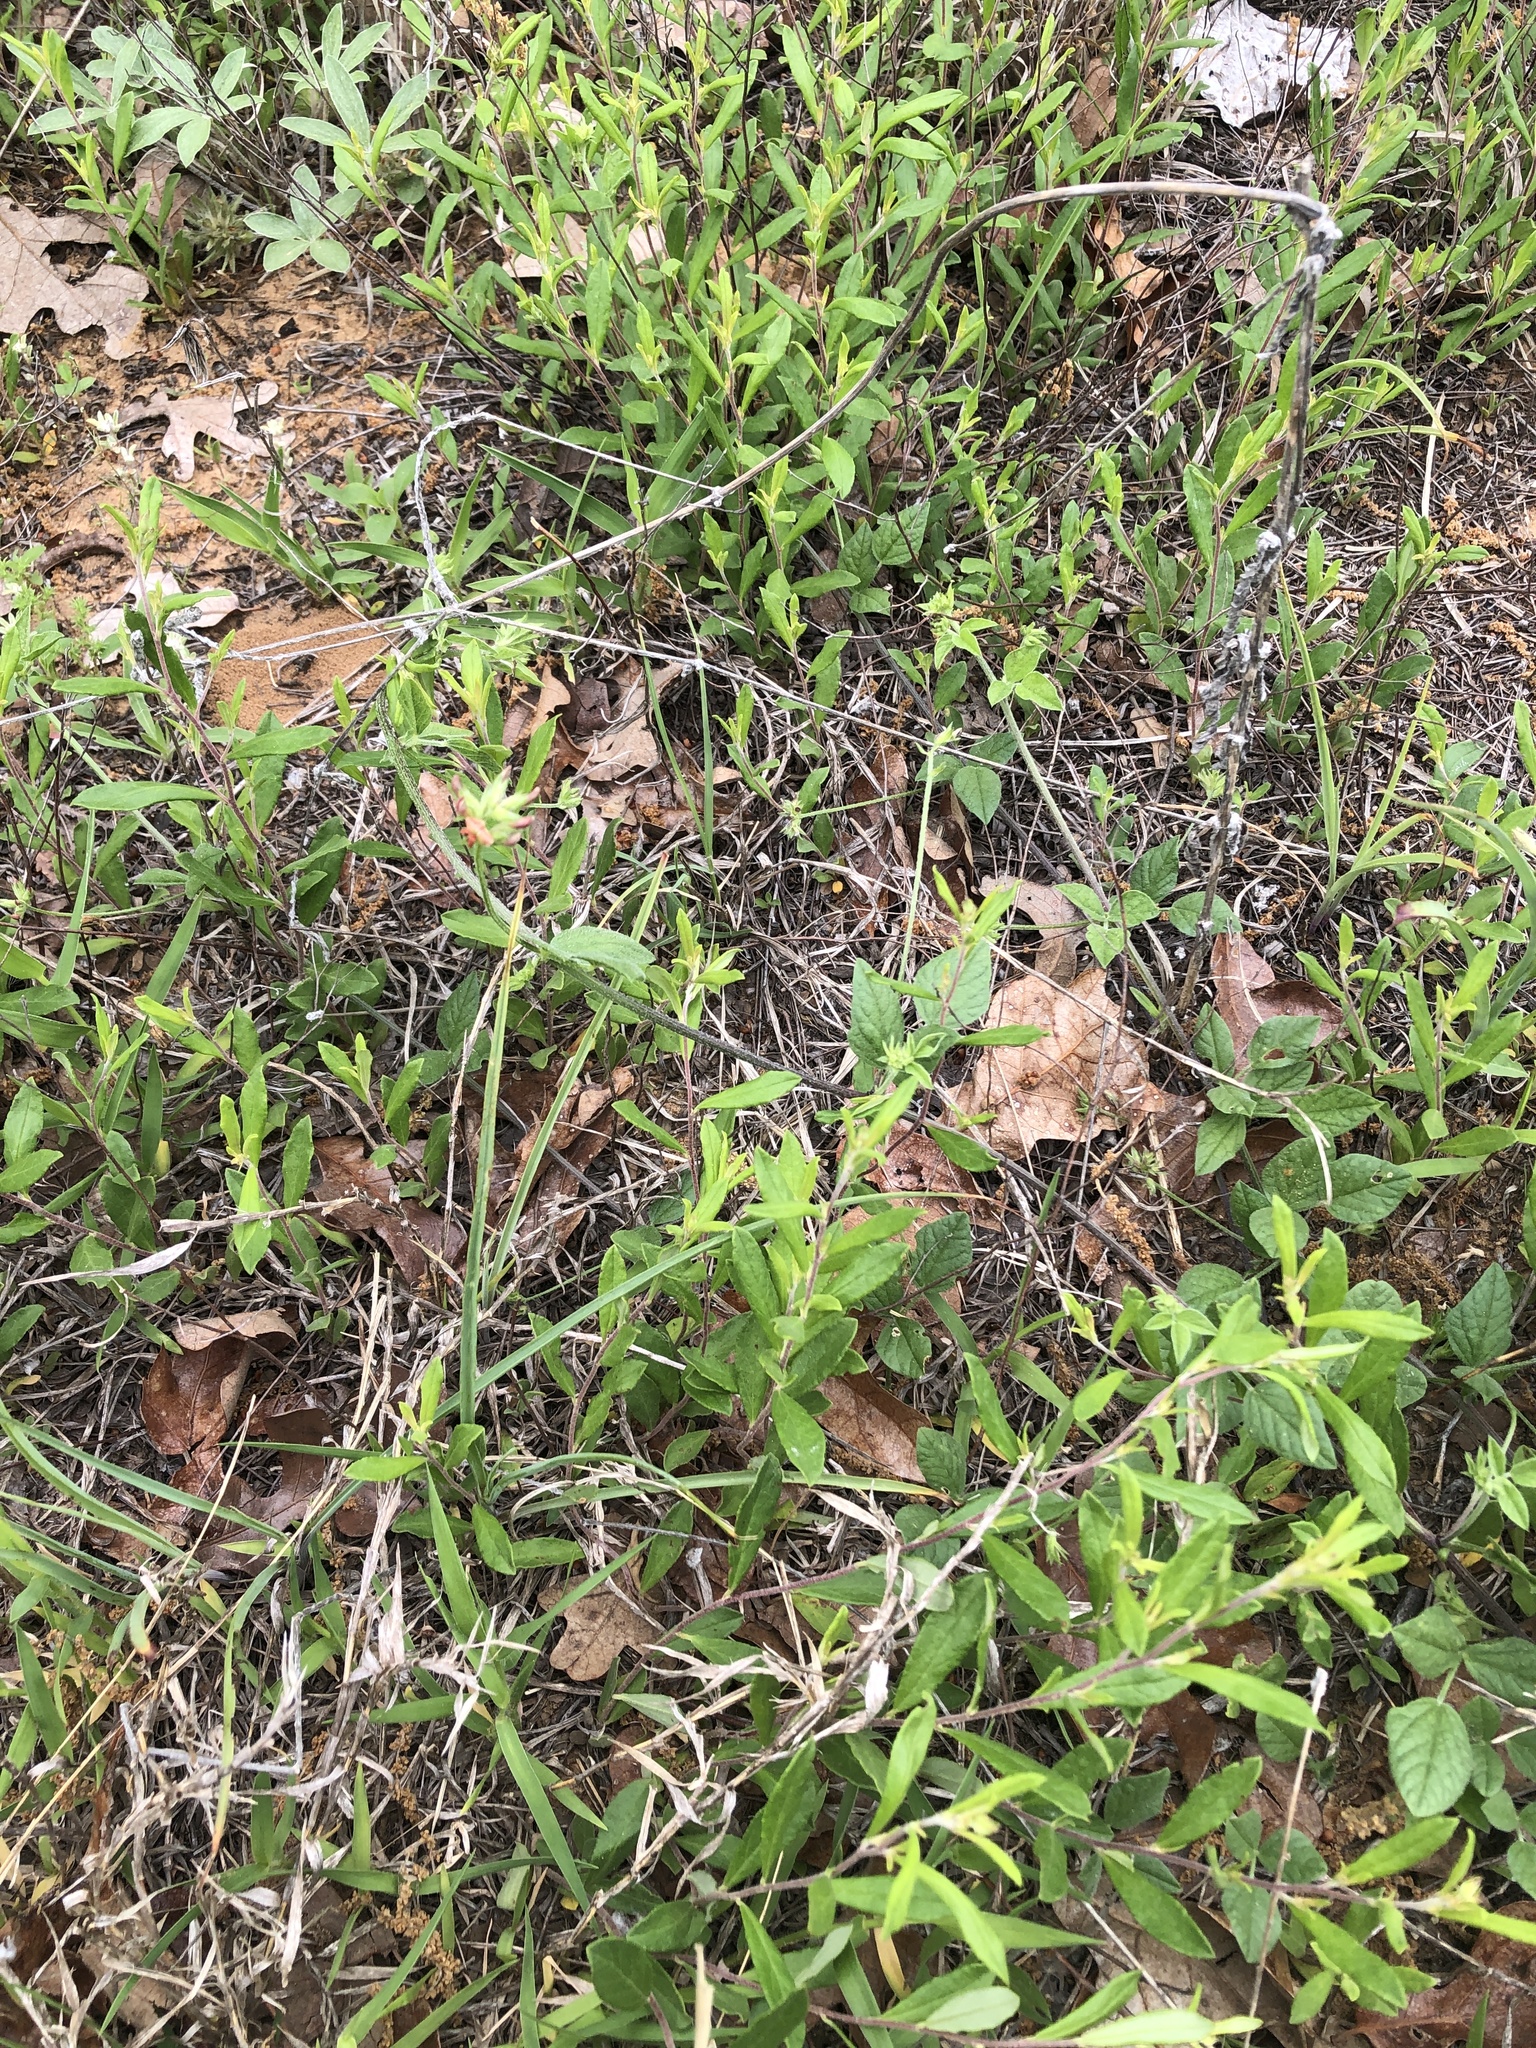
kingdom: Plantae
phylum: Tracheophyta
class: Magnoliopsida
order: Fabales
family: Fabaceae
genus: Pediomelum
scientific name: Pediomelum rhombifolium
